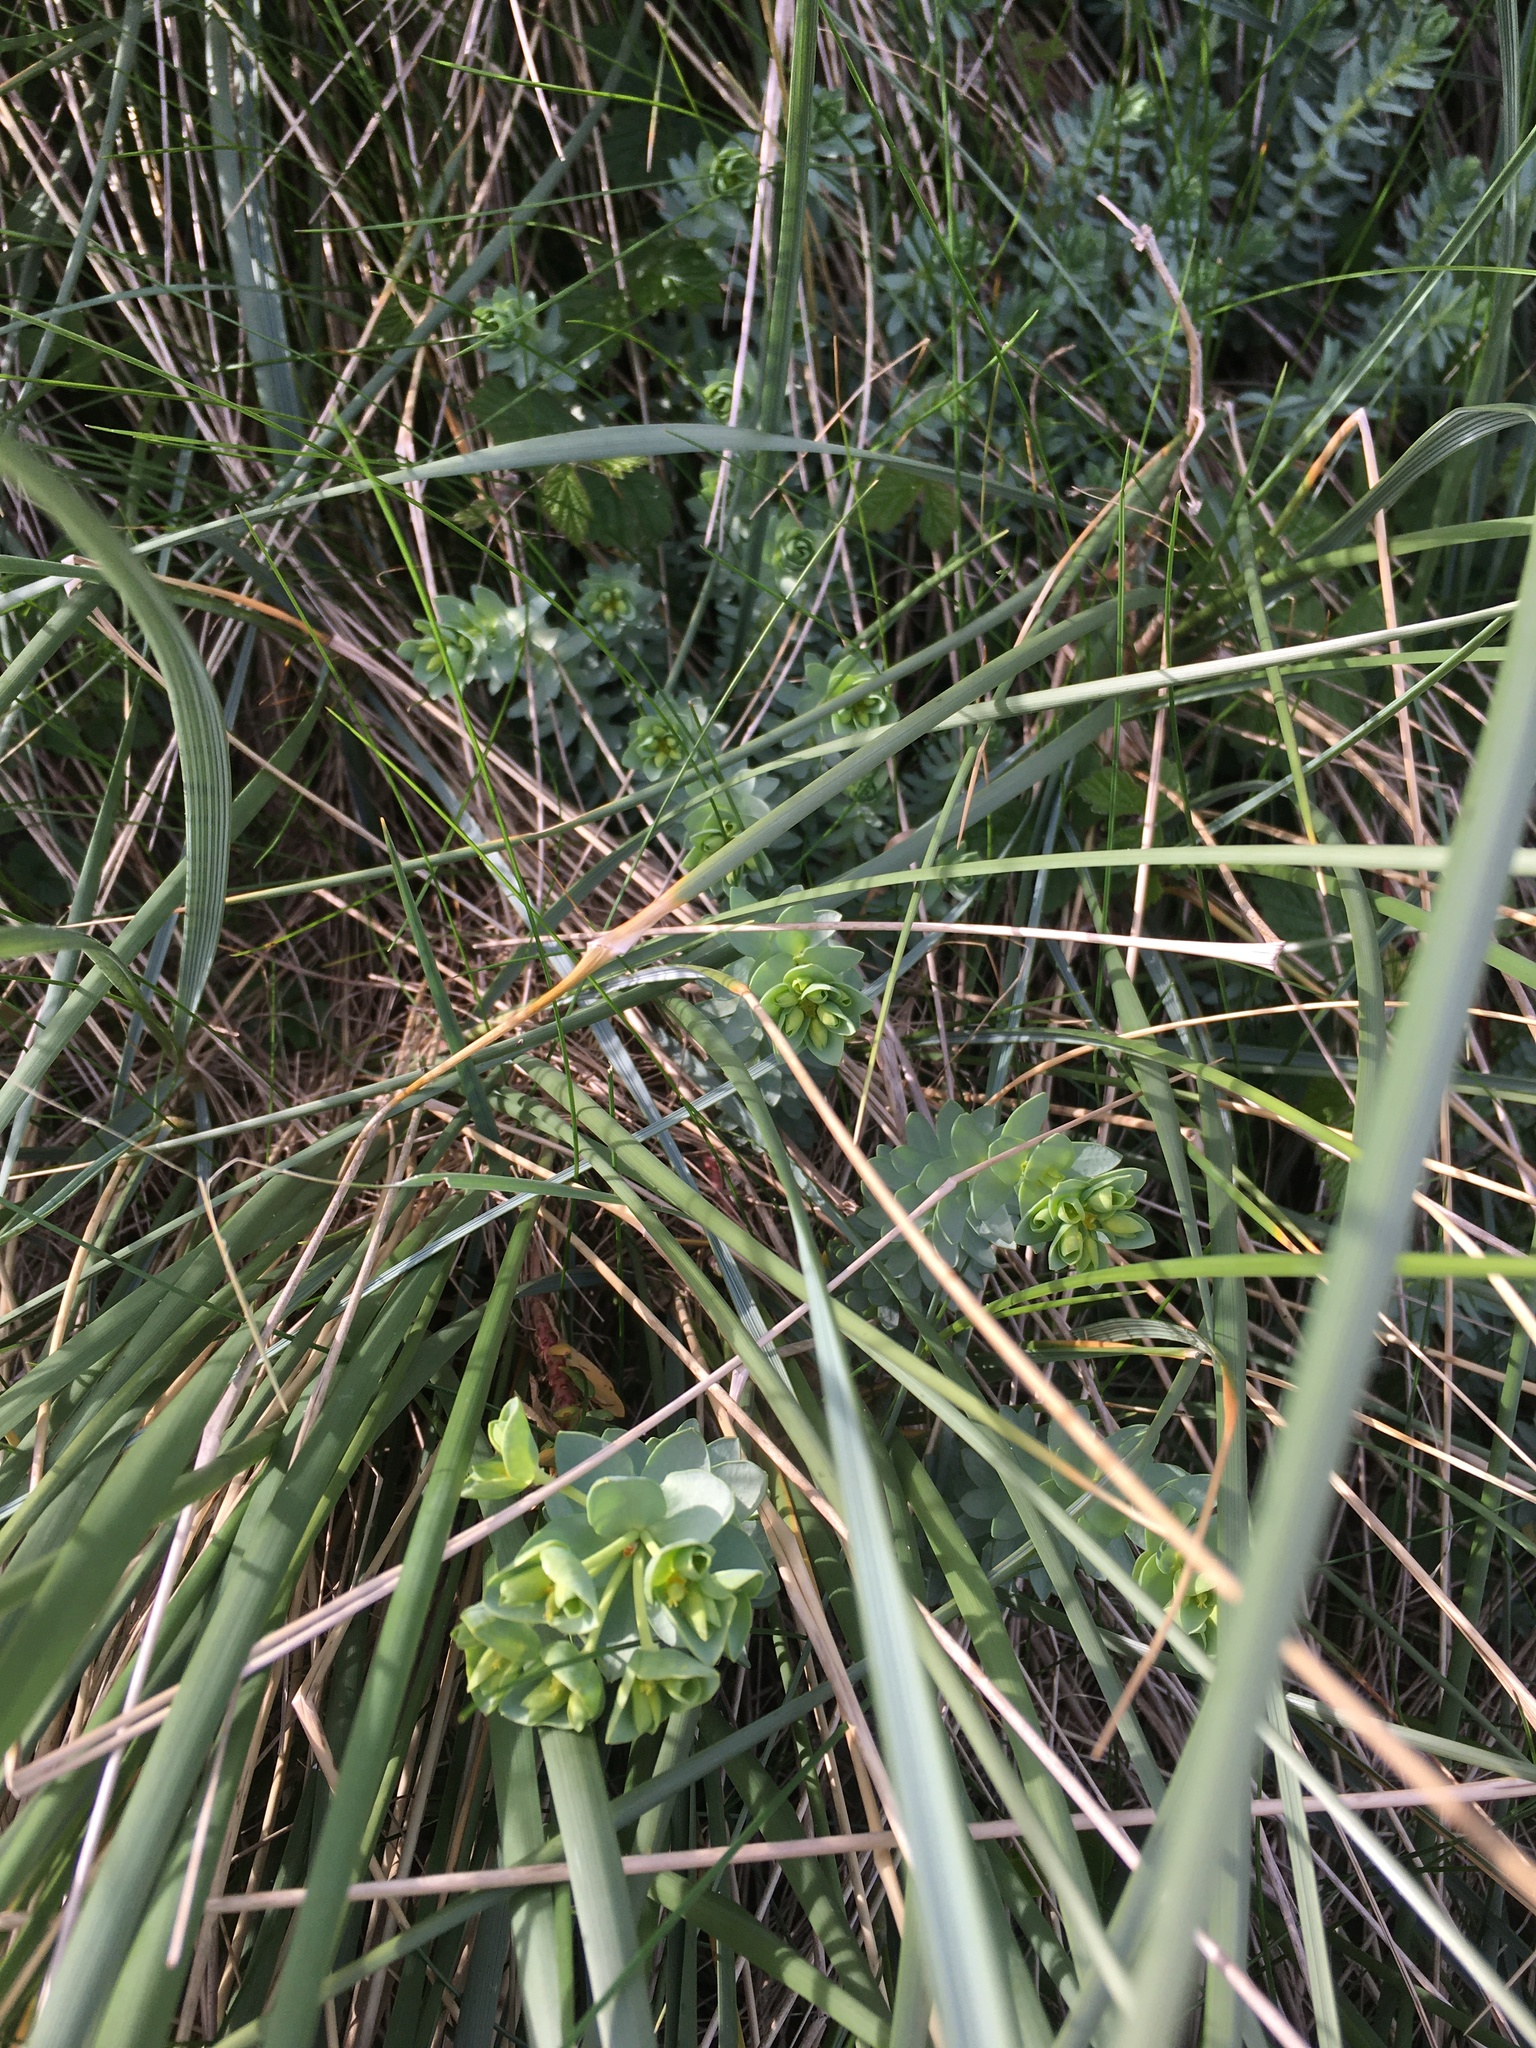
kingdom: Plantae
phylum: Tracheophyta
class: Magnoliopsida
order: Malpighiales
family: Euphorbiaceae
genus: Euphorbia
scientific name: Euphorbia paralias
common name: Sea spurge
